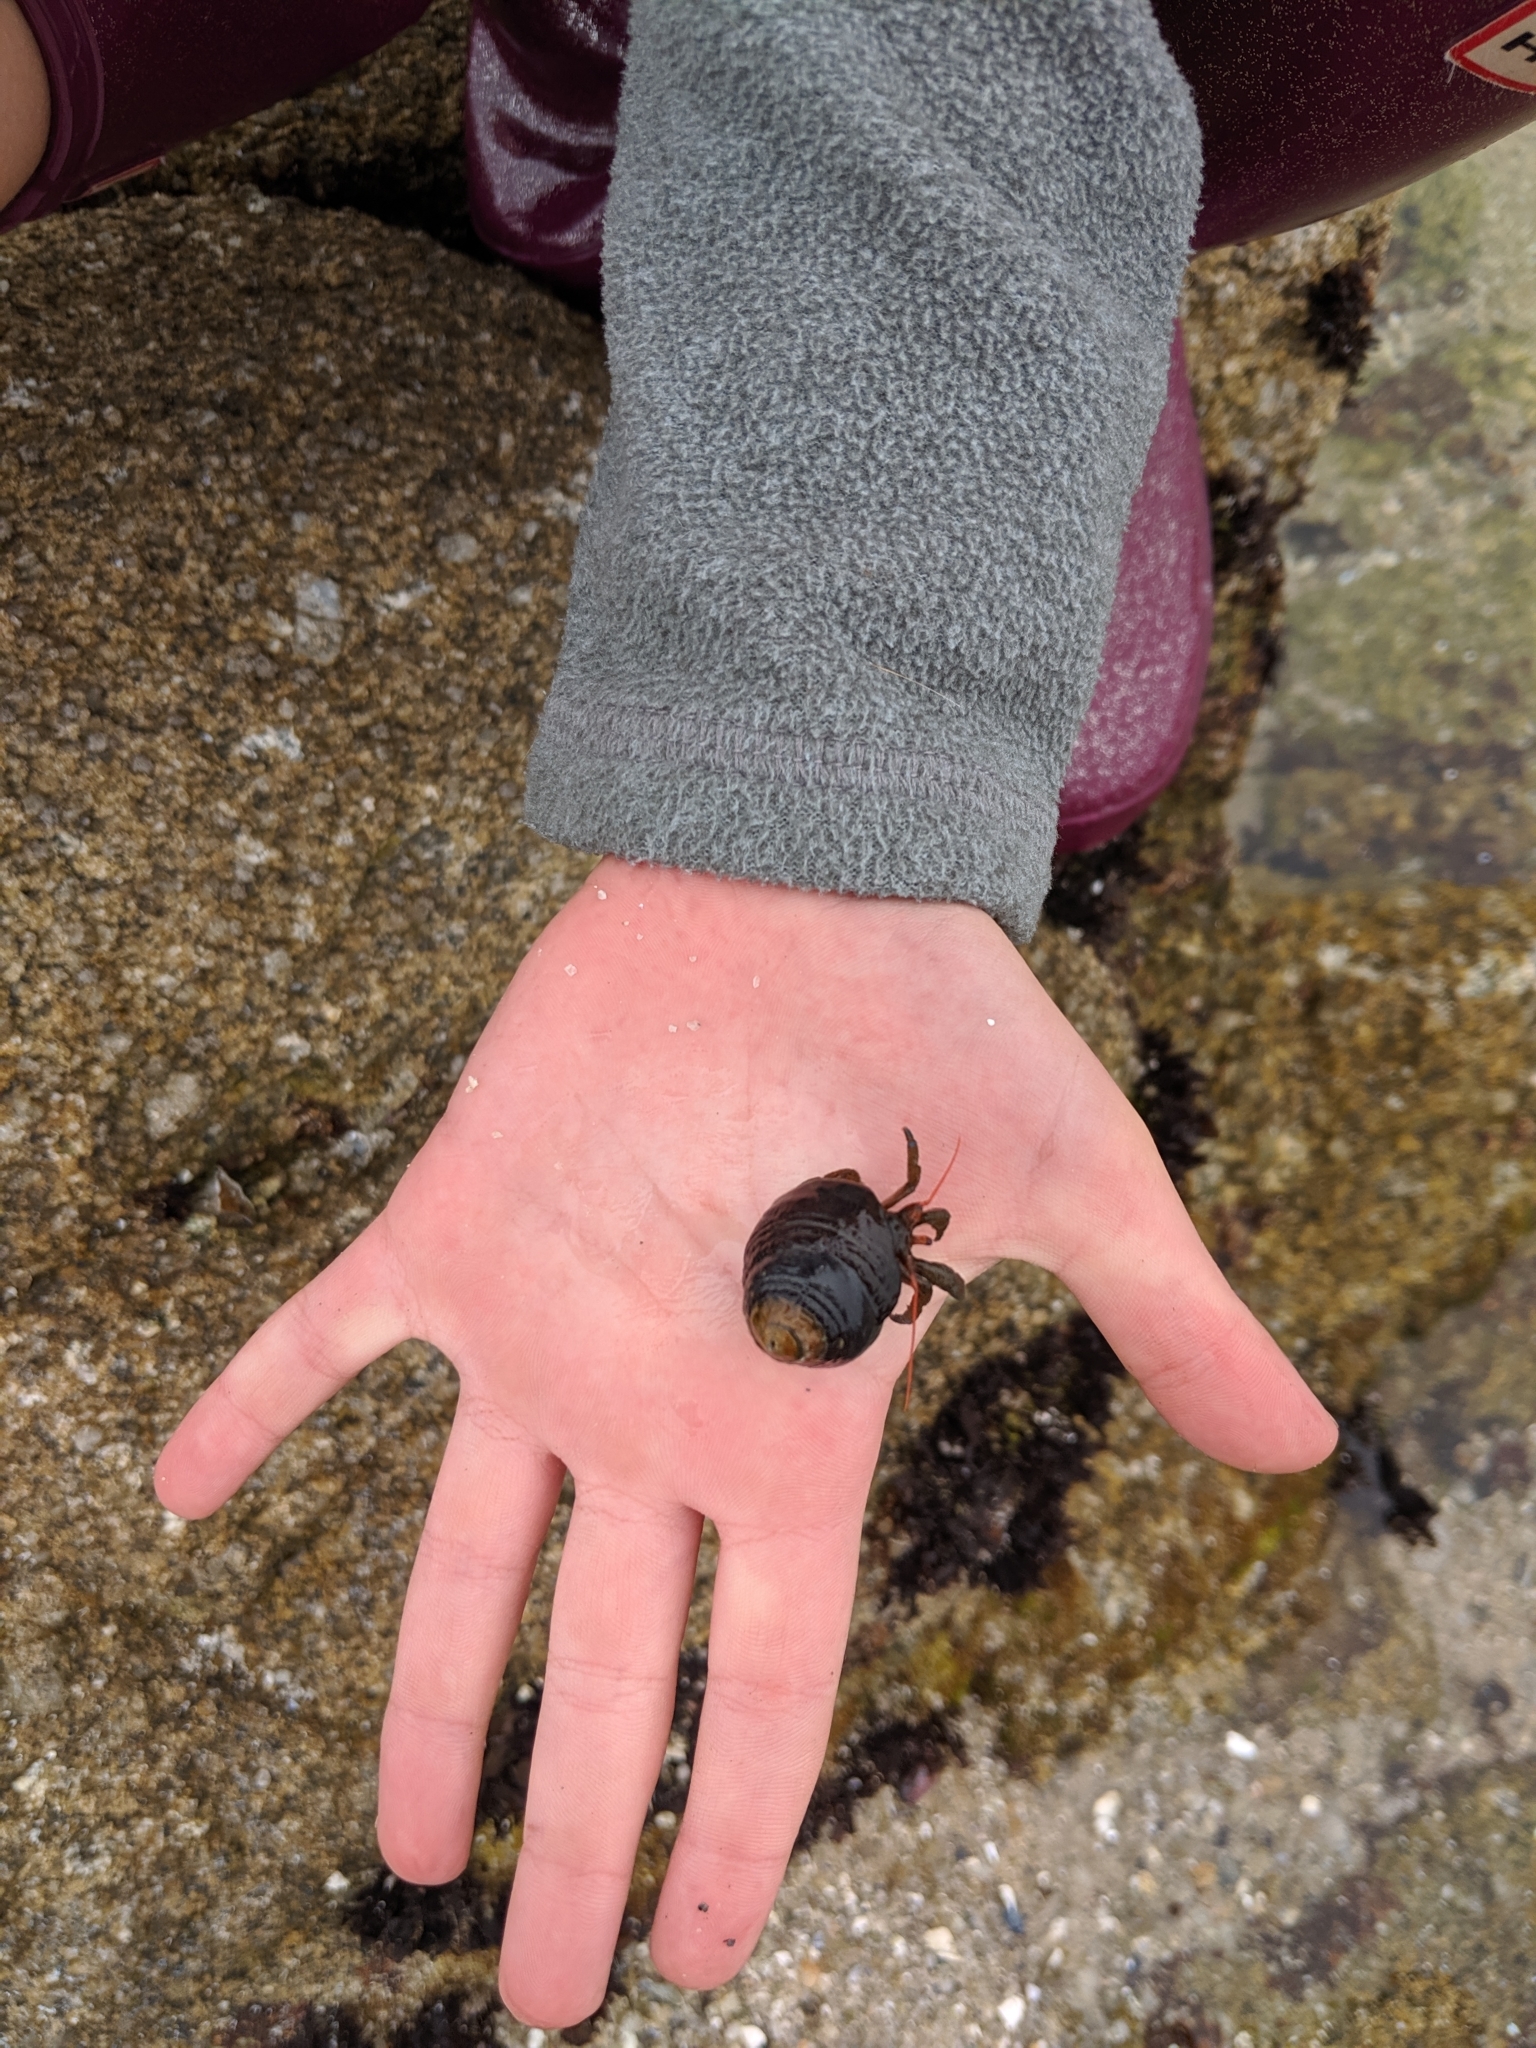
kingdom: Animalia
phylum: Arthropoda
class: Malacostraca
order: Decapoda
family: Paguridae
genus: Pagurus
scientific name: Pagurus samuelis
